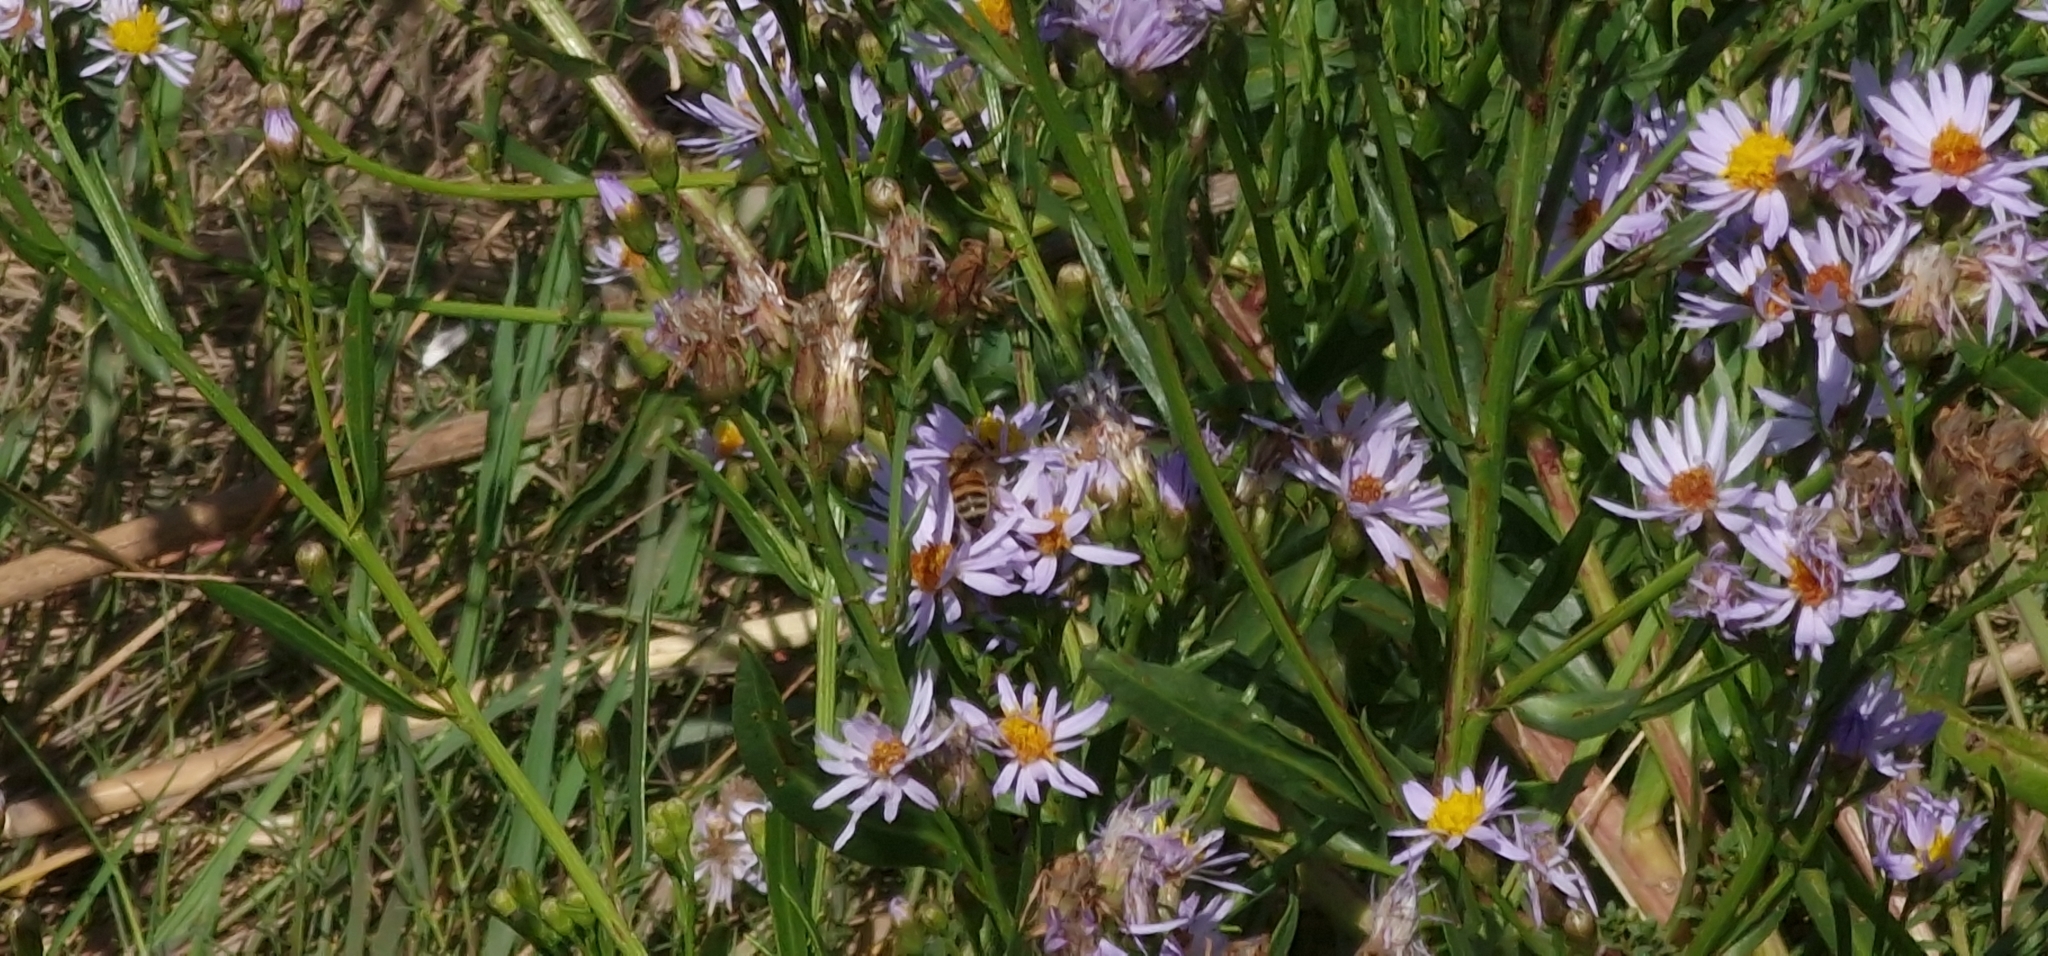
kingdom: Animalia
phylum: Arthropoda
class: Insecta
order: Hymenoptera
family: Apidae
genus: Apis
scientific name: Apis mellifera
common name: Honey bee
